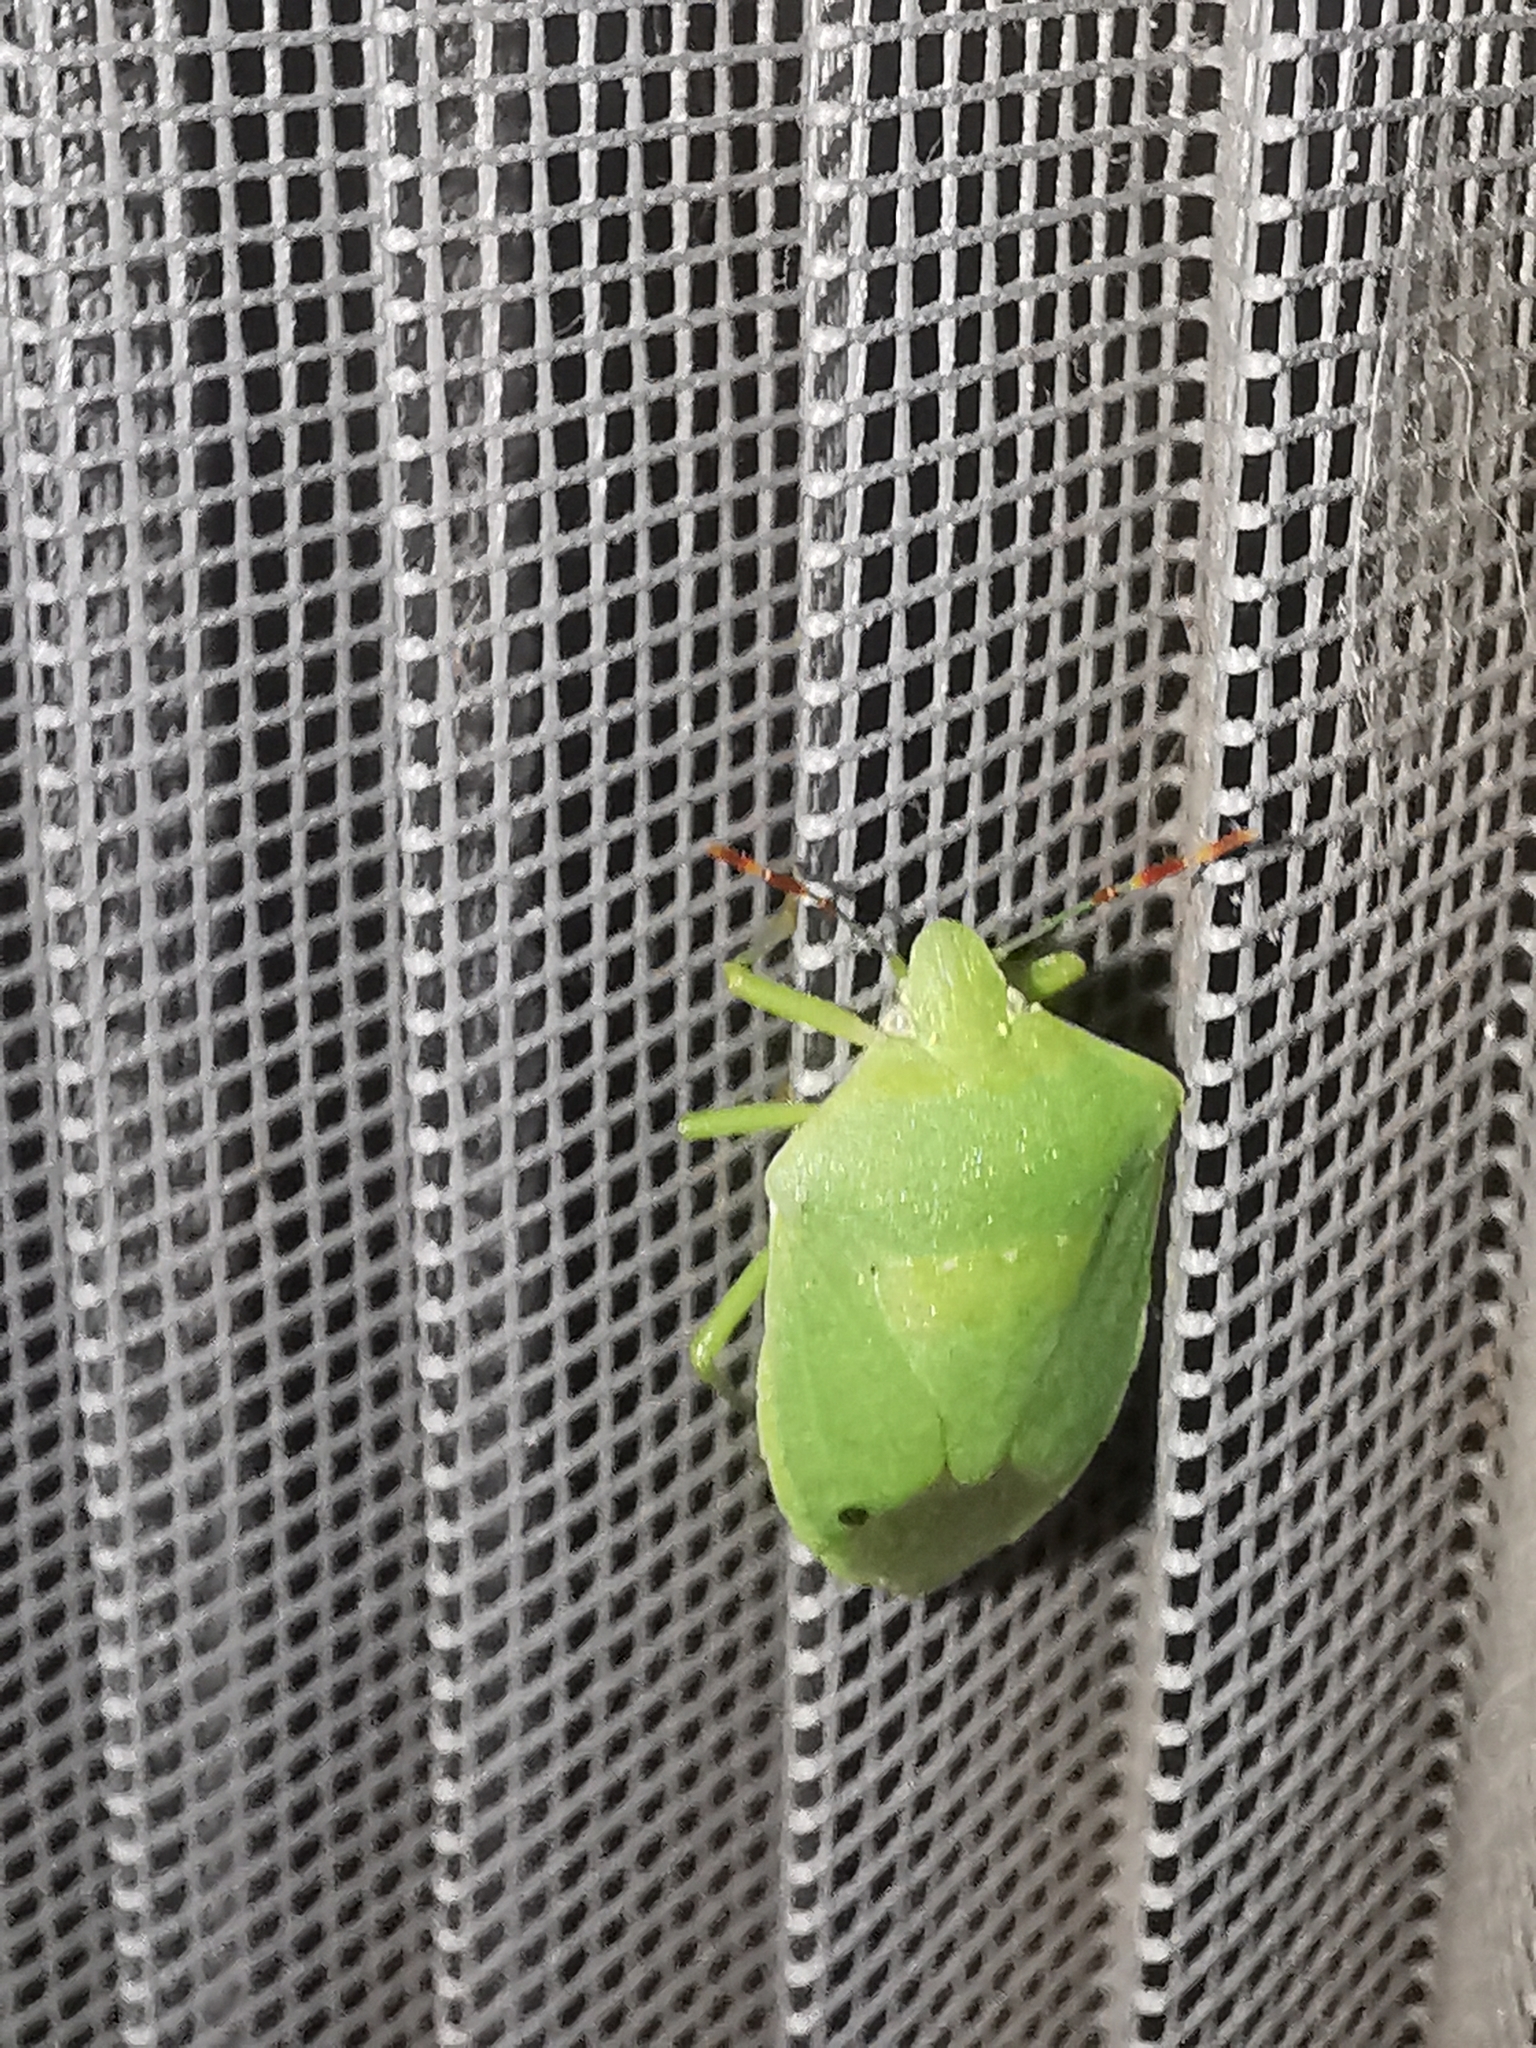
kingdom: Animalia
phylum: Arthropoda
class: Insecta
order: Hemiptera
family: Pentatomidae
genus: Nezara
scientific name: Nezara viridula
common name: Southern green stink bug
